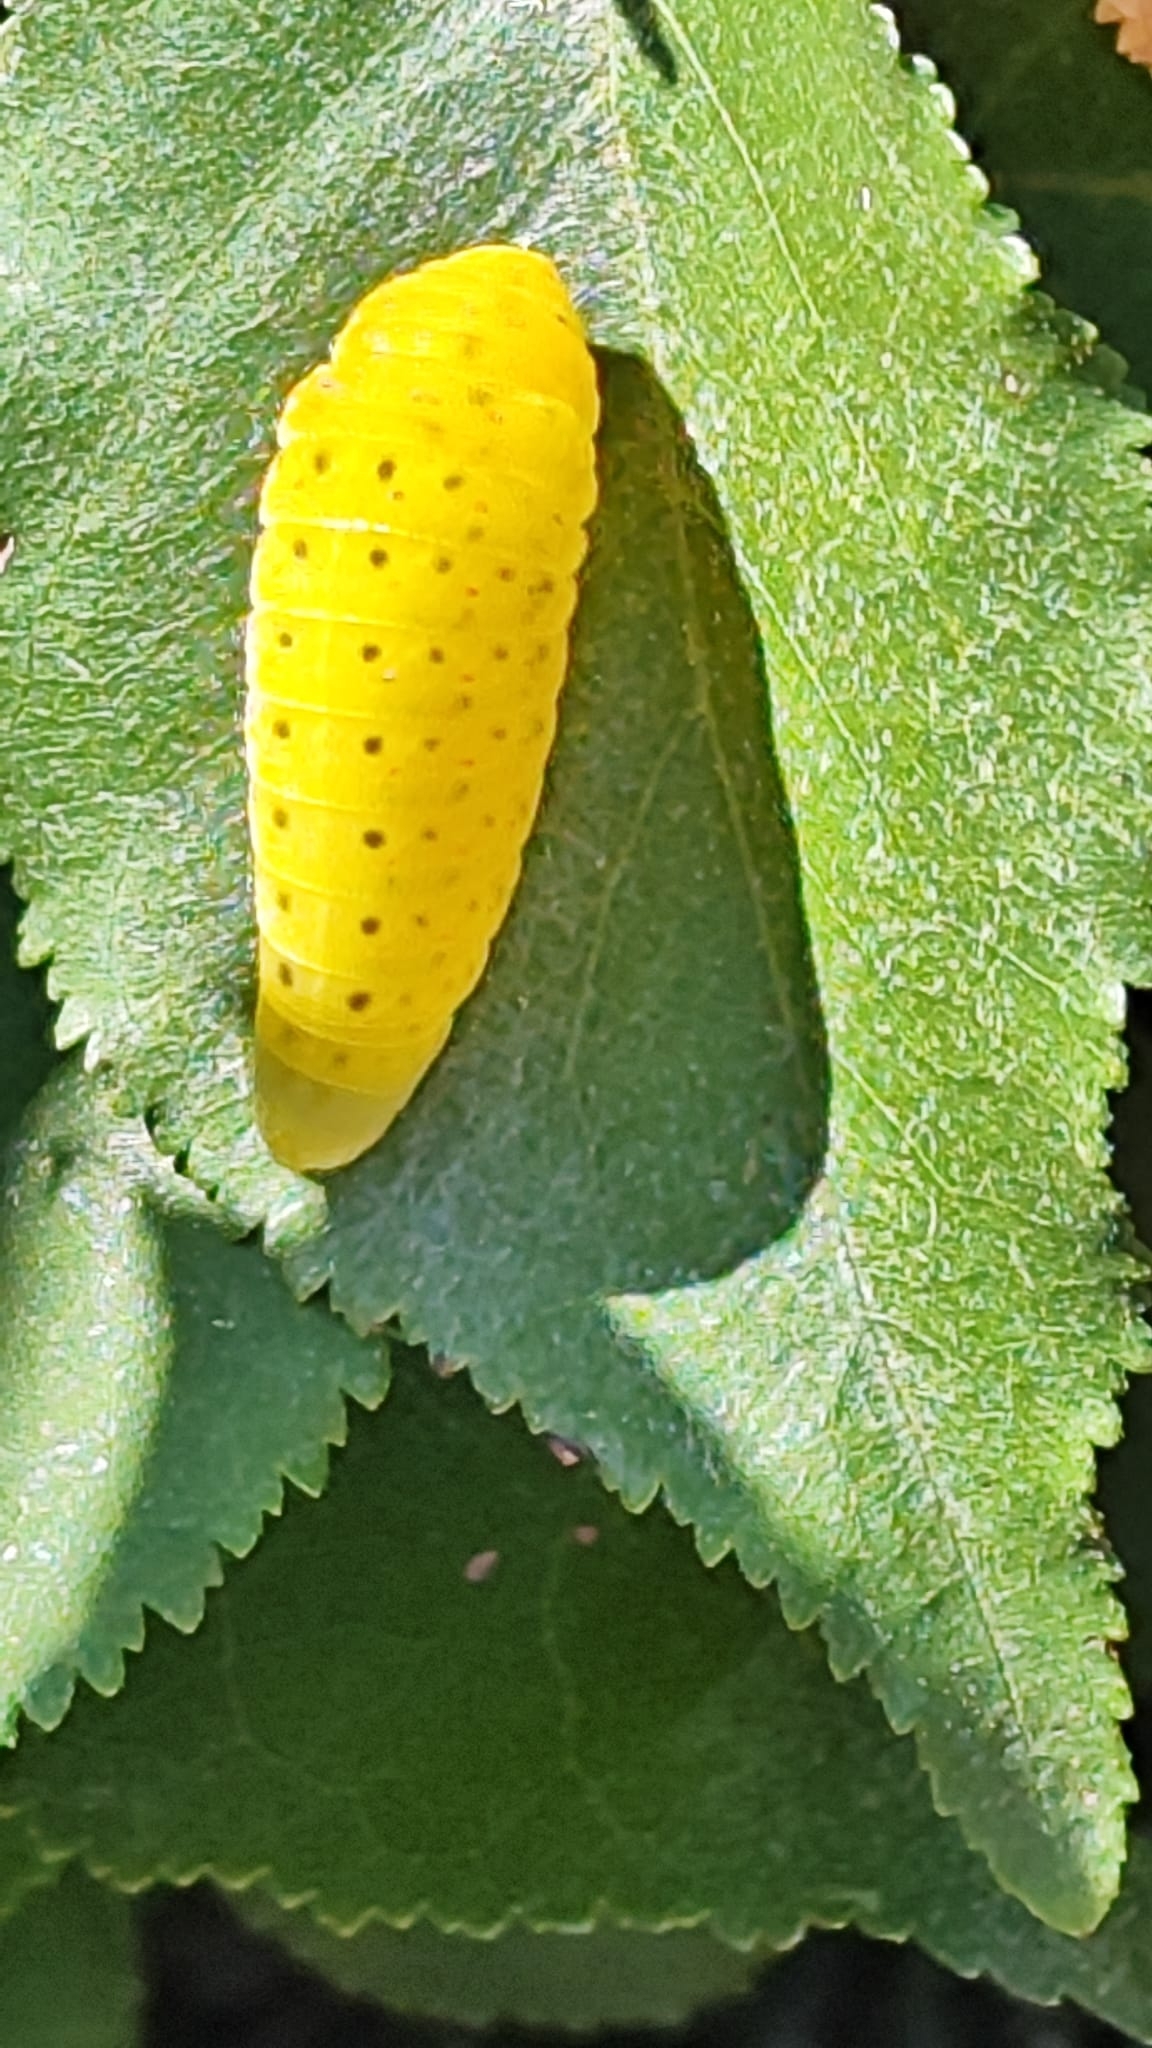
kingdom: Animalia
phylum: Arthropoda
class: Insecta
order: Lepidoptera
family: Papilionidae
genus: Iphiclides
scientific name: Iphiclides feisthamelii
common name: Iberian scarce swallowtail
